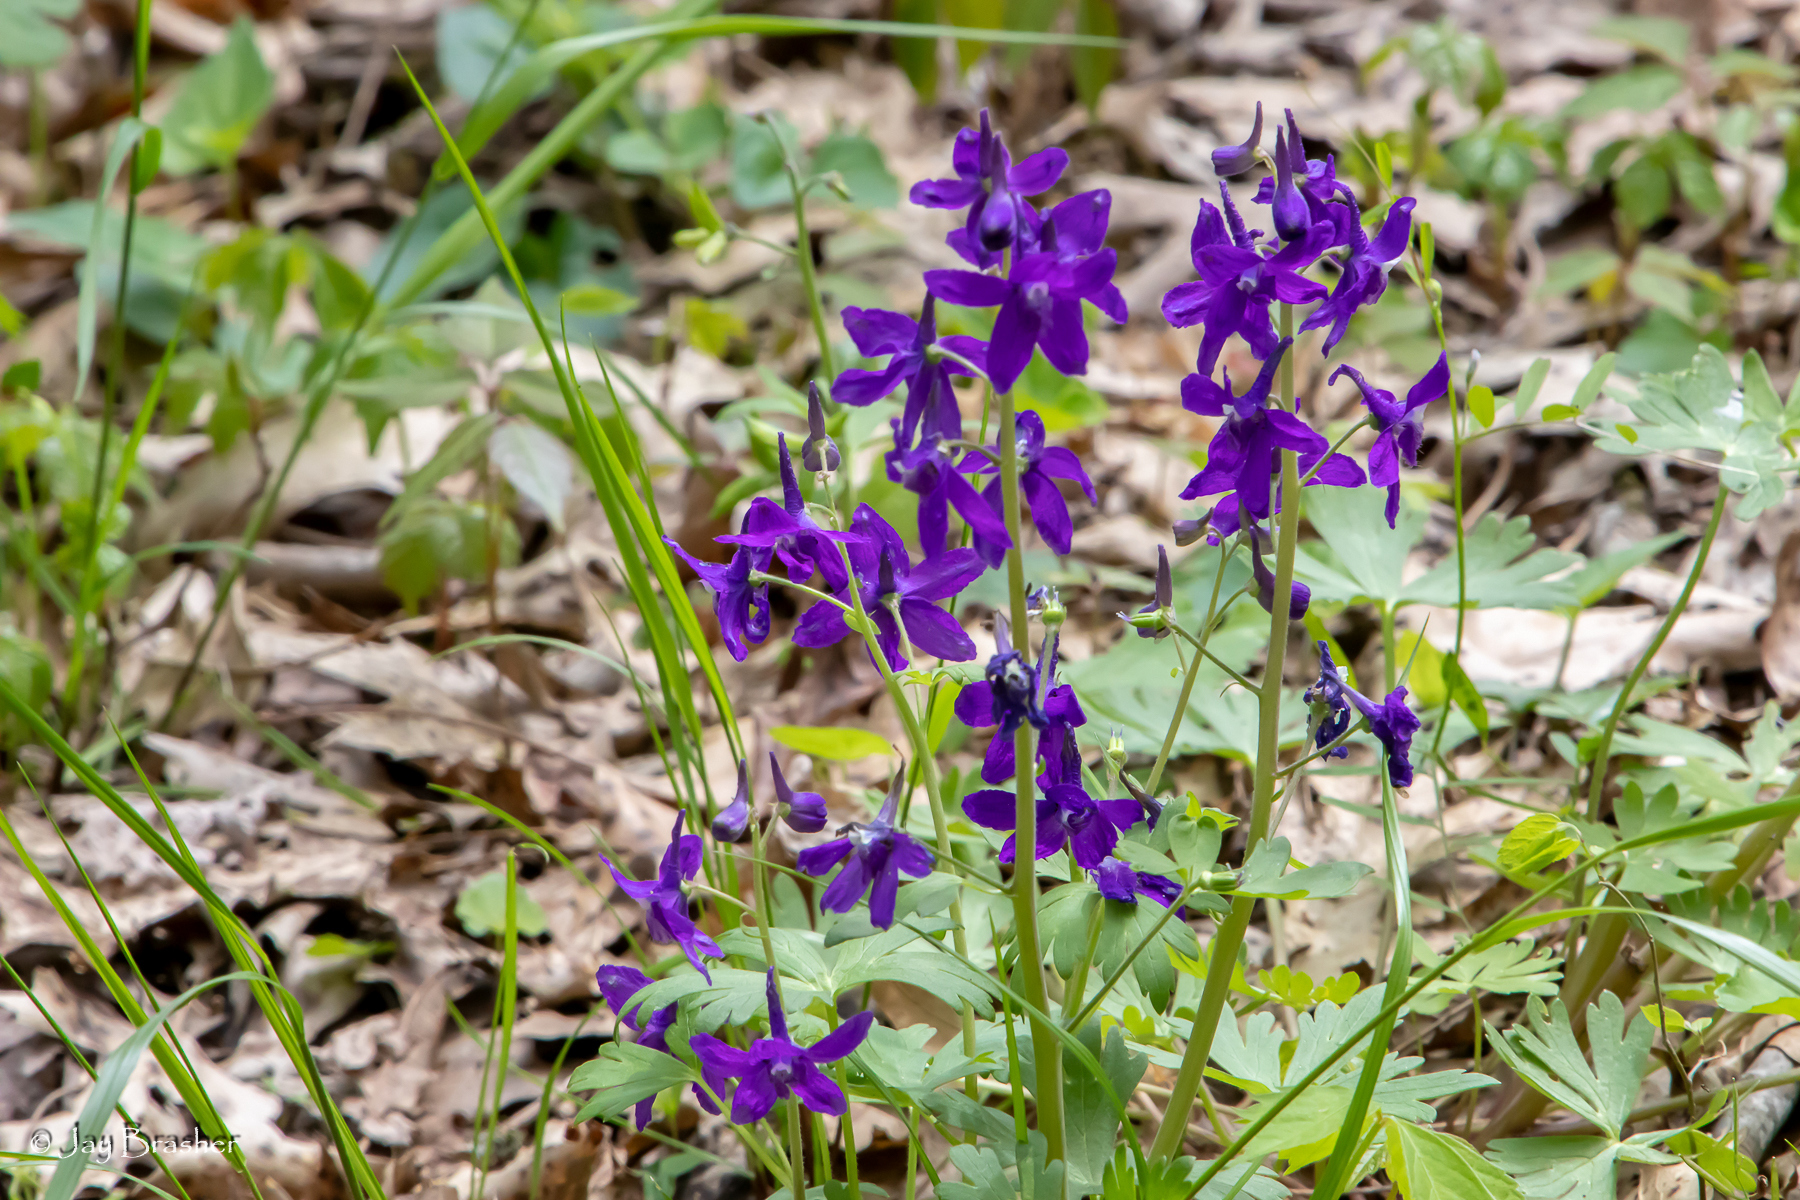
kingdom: Plantae
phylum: Tracheophyta
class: Magnoliopsida
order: Ranunculales
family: Ranunculaceae
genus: Delphinium
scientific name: Delphinium tricorne
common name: Dwarf larkspur
